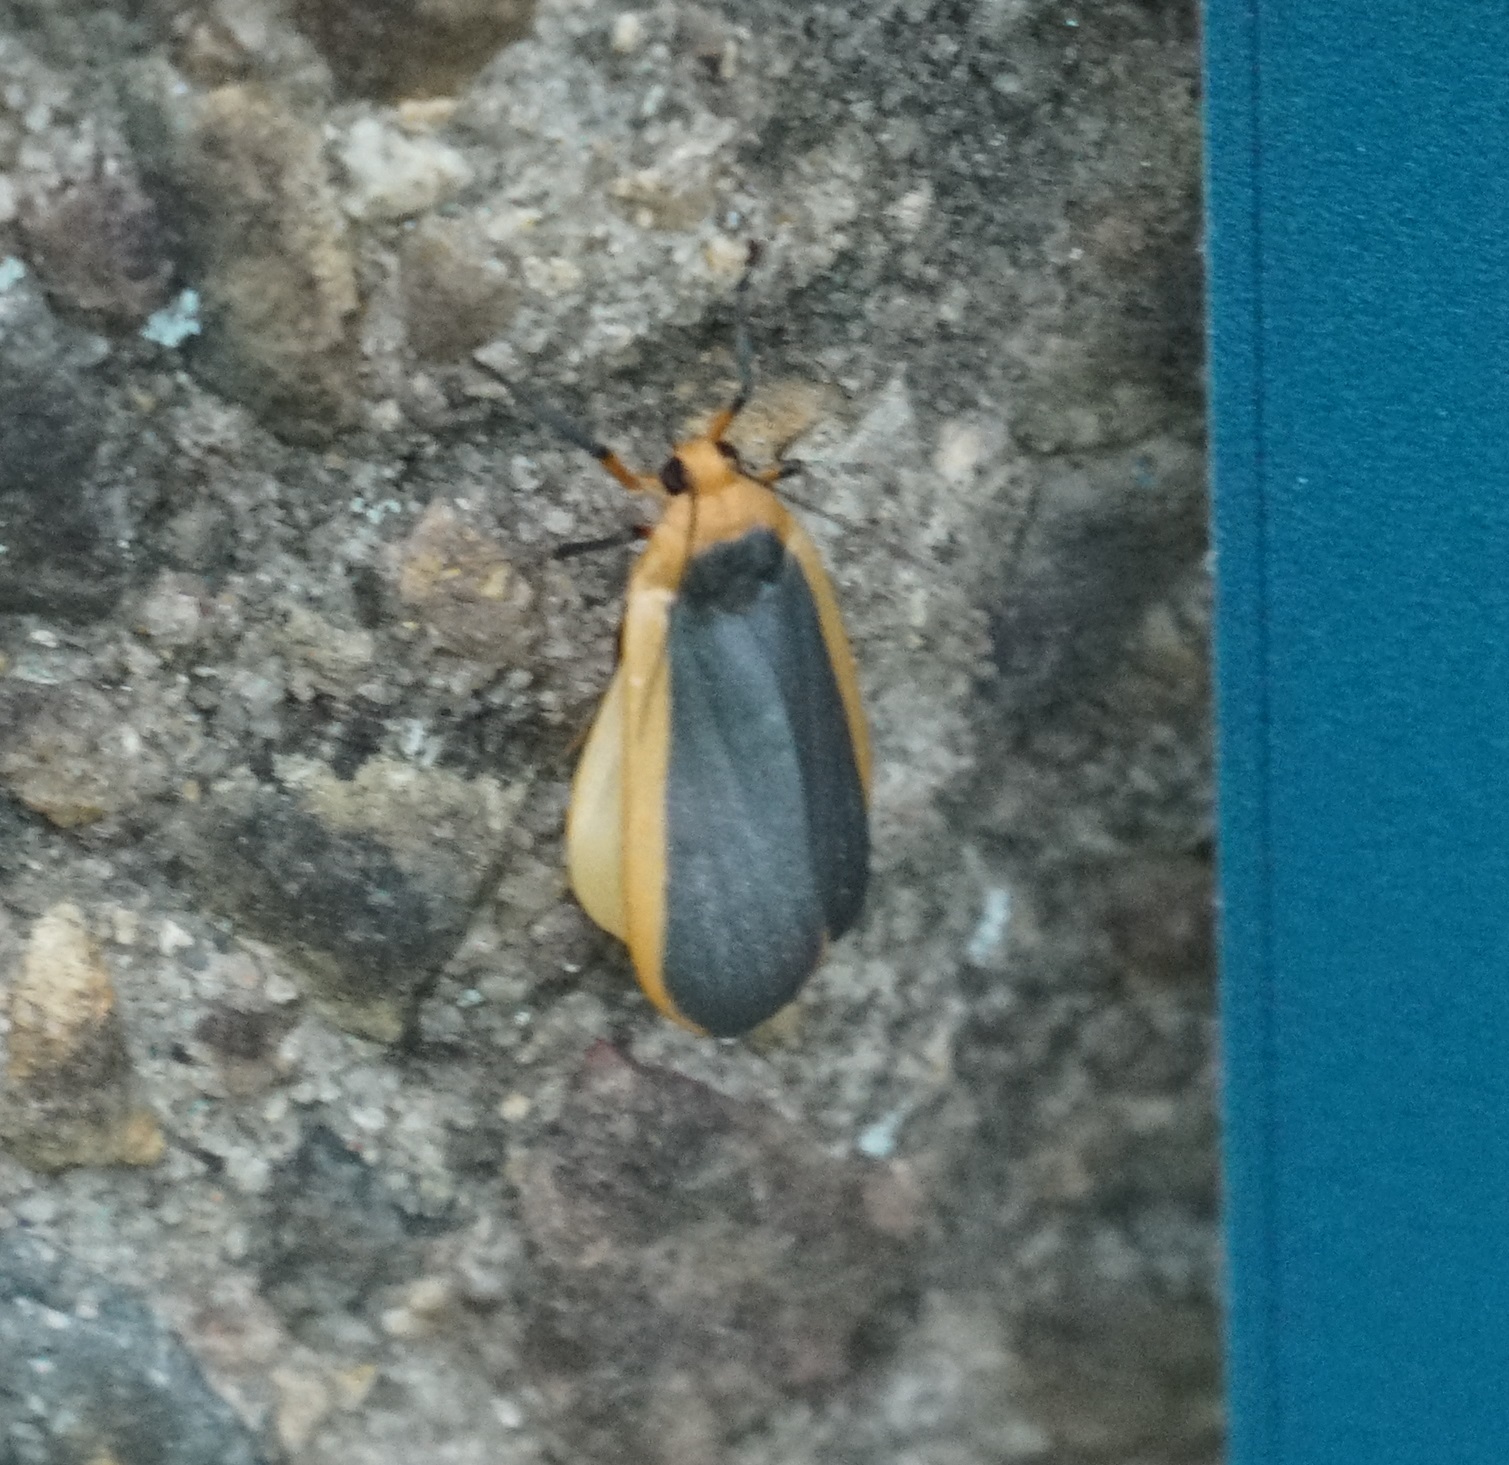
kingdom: Animalia
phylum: Arthropoda
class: Insecta
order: Lepidoptera
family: Erebidae
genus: Brunia
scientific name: Brunia dorsalis
